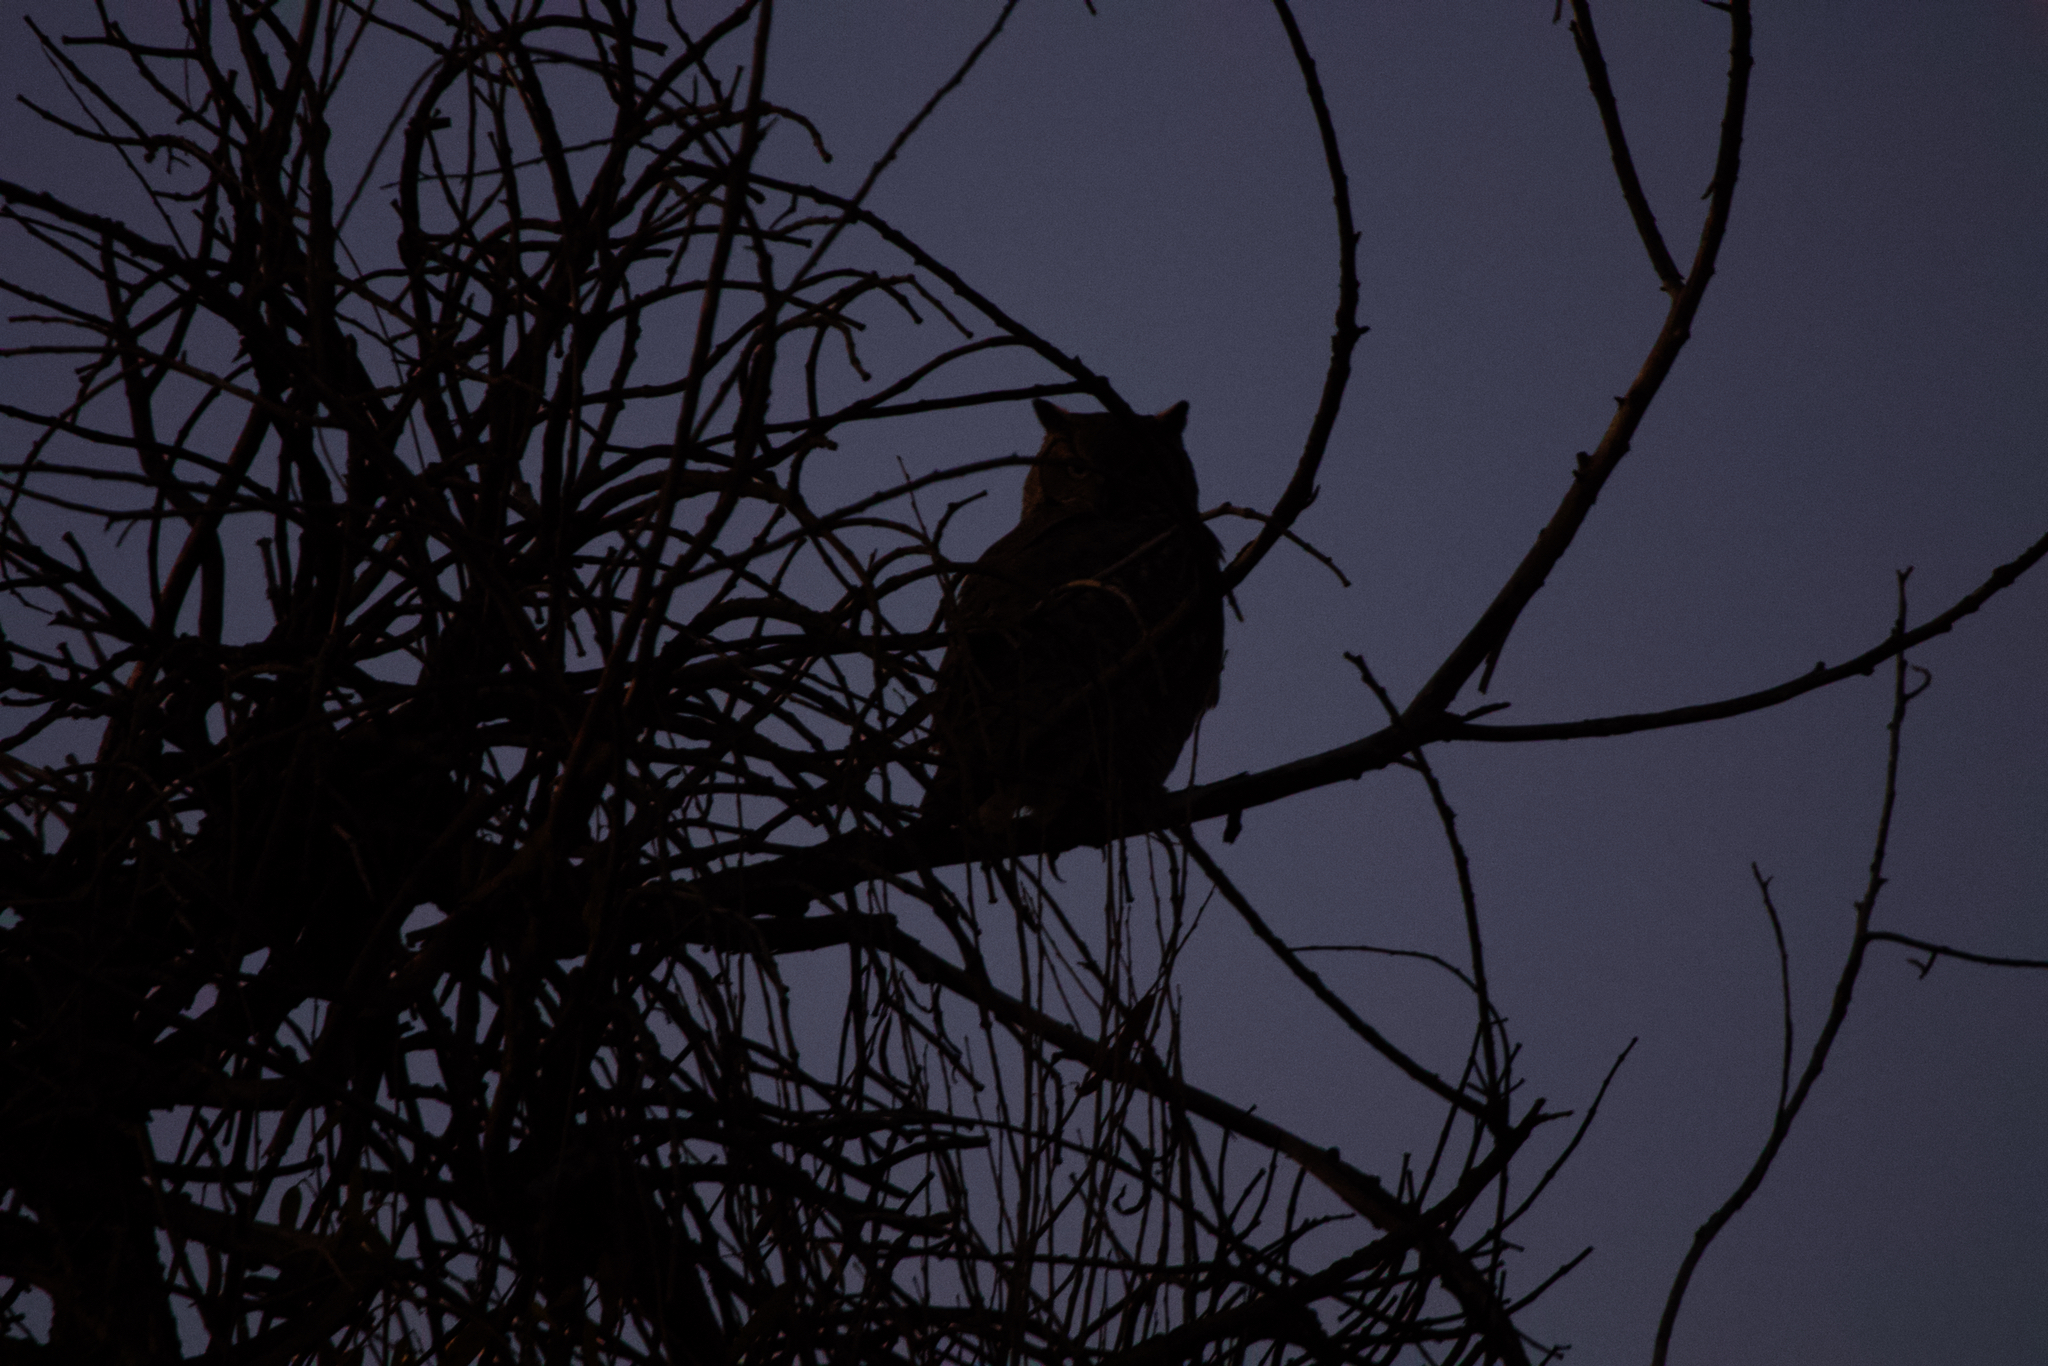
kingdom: Animalia
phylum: Chordata
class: Aves
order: Strigiformes
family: Strigidae
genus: Bubo
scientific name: Bubo virginianus
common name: Great horned owl
